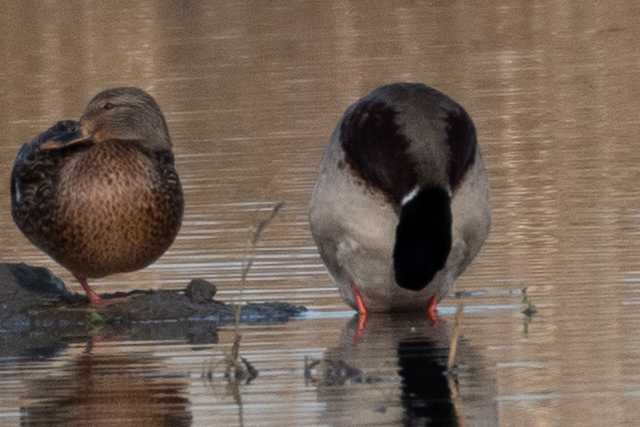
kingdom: Animalia
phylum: Chordata
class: Aves
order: Anseriformes
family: Anatidae
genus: Anas
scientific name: Anas platyrhynchos
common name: Mallard
